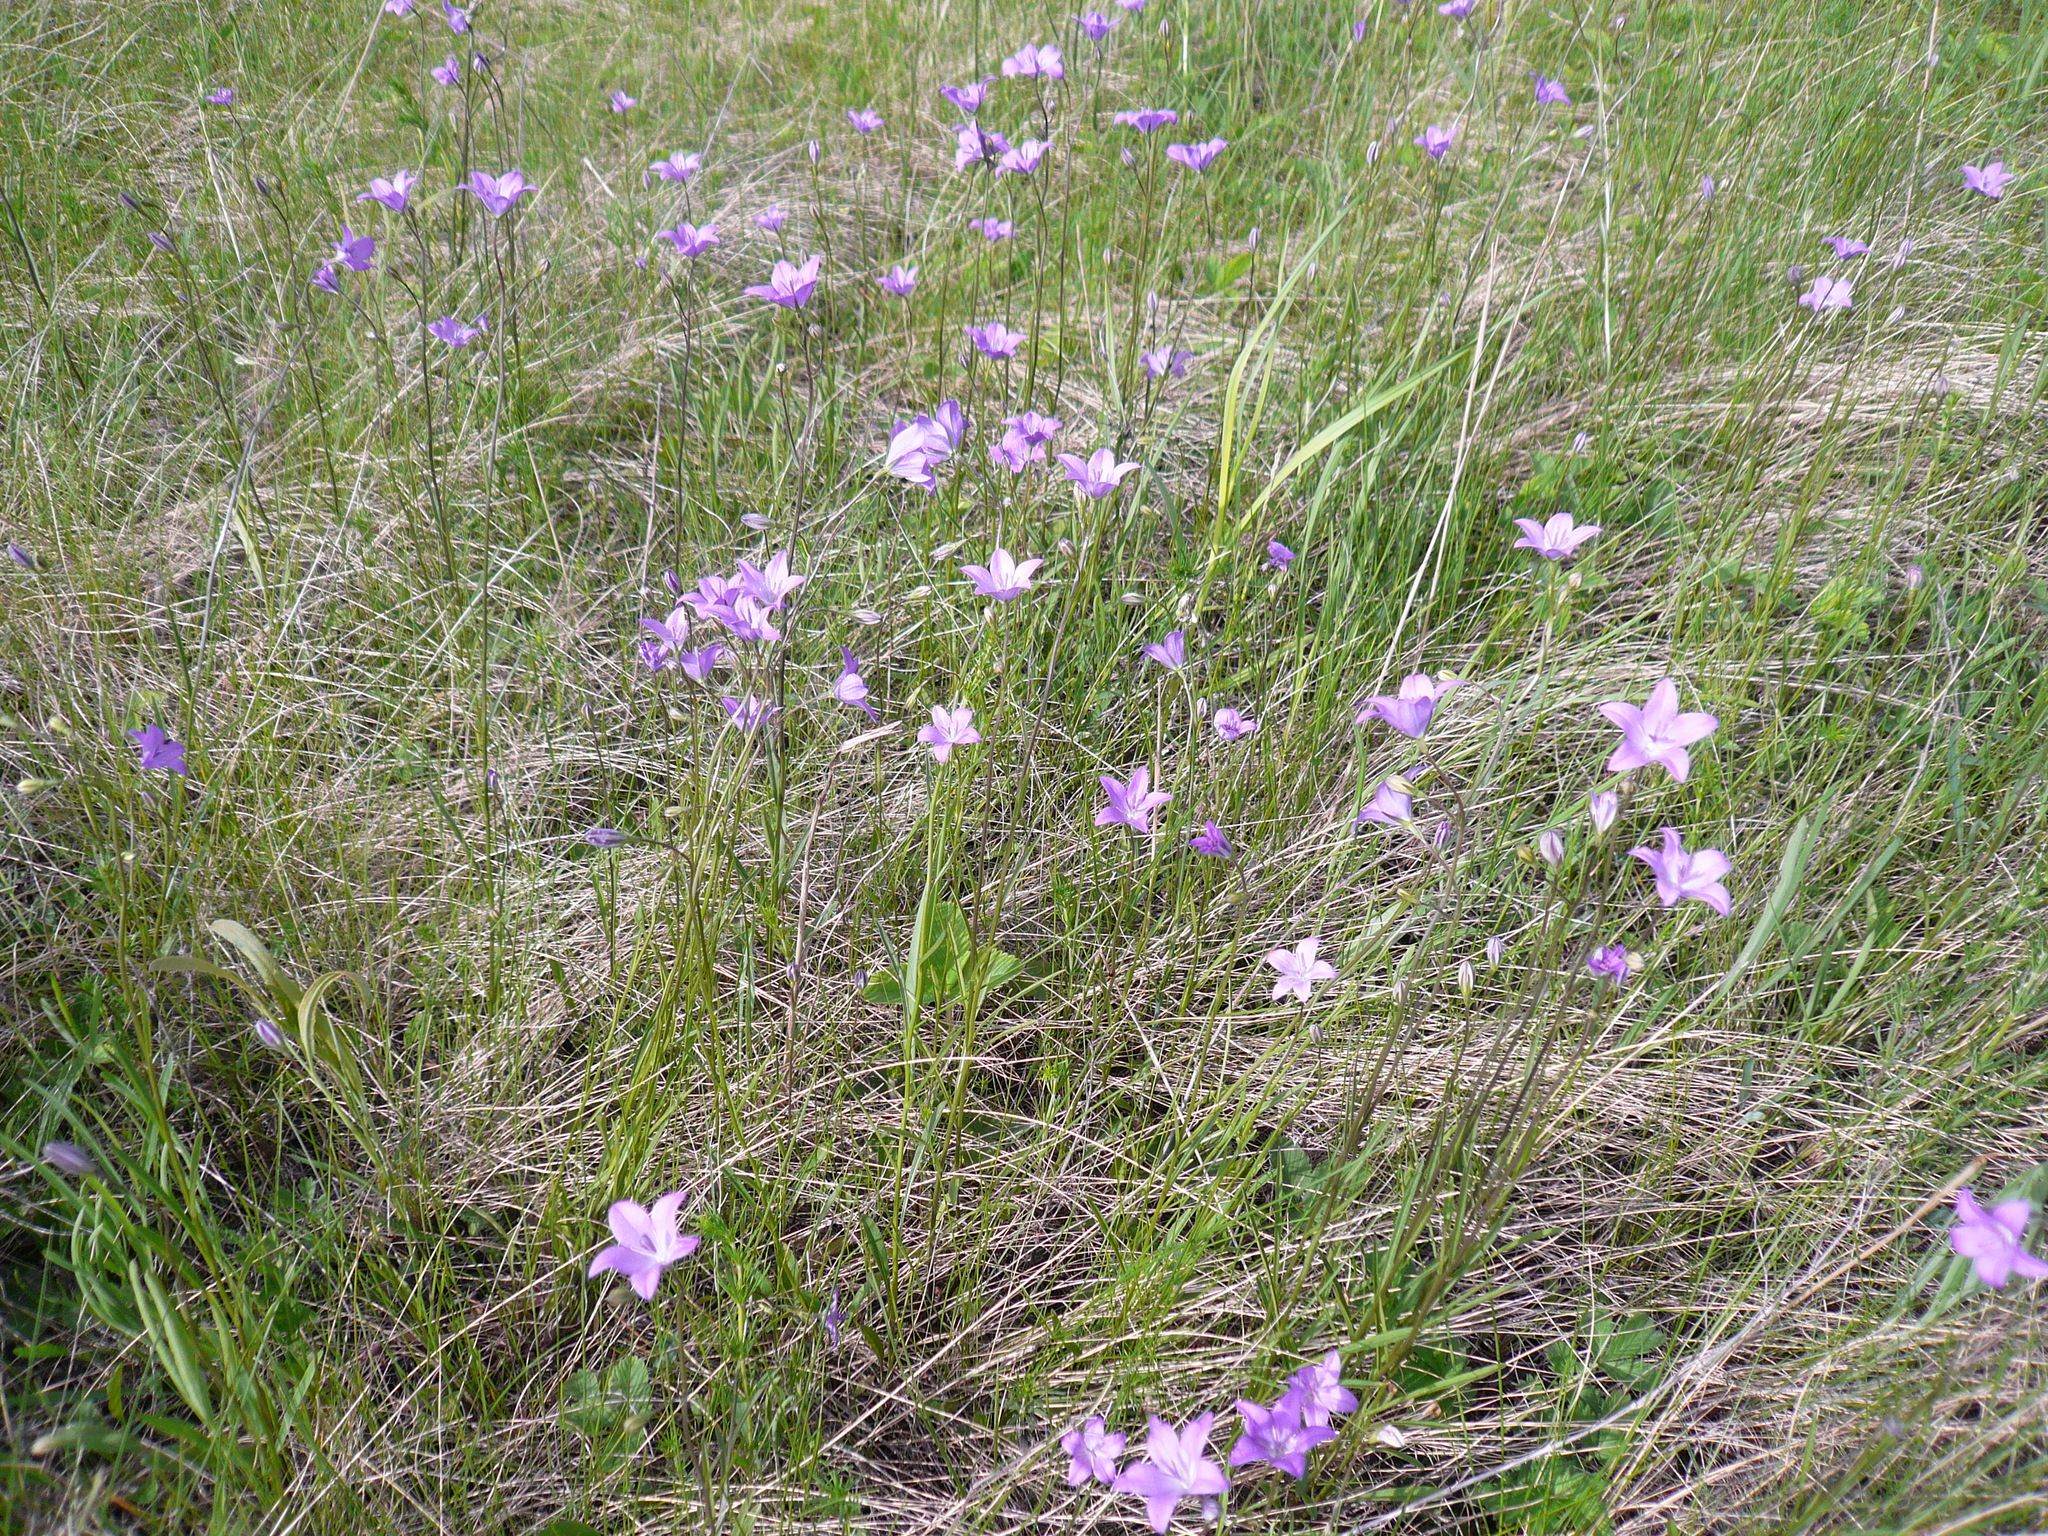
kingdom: Plantae
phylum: Tracheophyta
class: Magnoliopsida
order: Asterales
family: Campanulaceae
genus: Campanula
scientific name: Campanula stevenii
